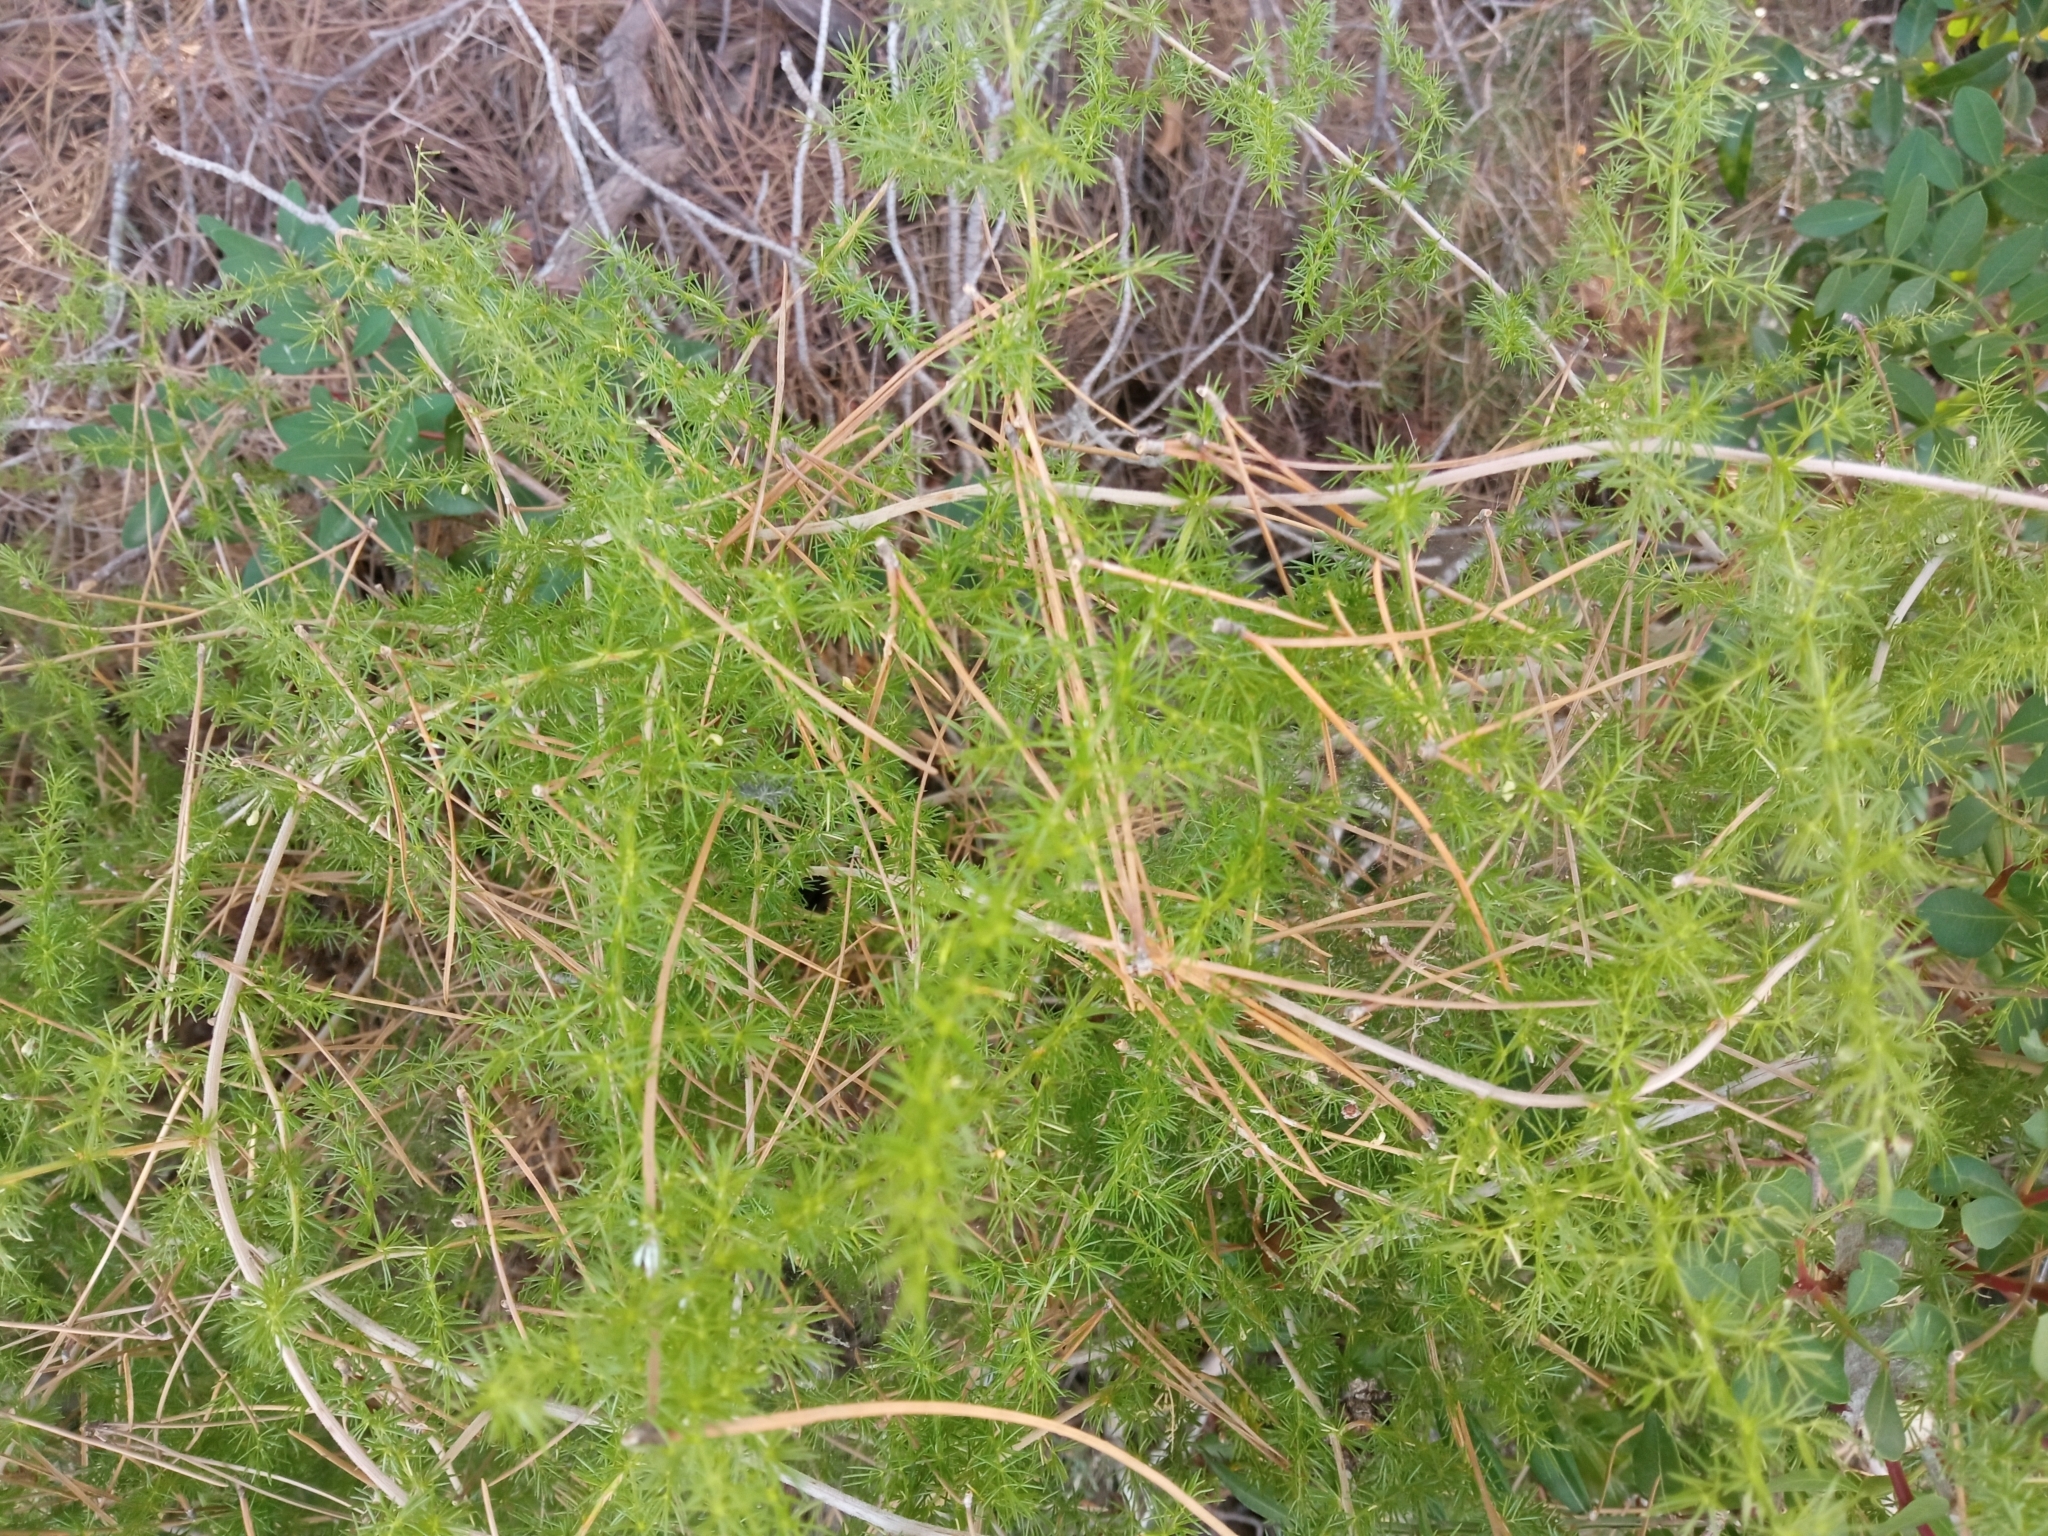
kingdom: Plantae
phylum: Tracheophyta
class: Liliopsida
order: Asparagales
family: Asparagaceae
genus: Asparagus
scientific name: Asparagus acutifolius
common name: Wild asparagus
